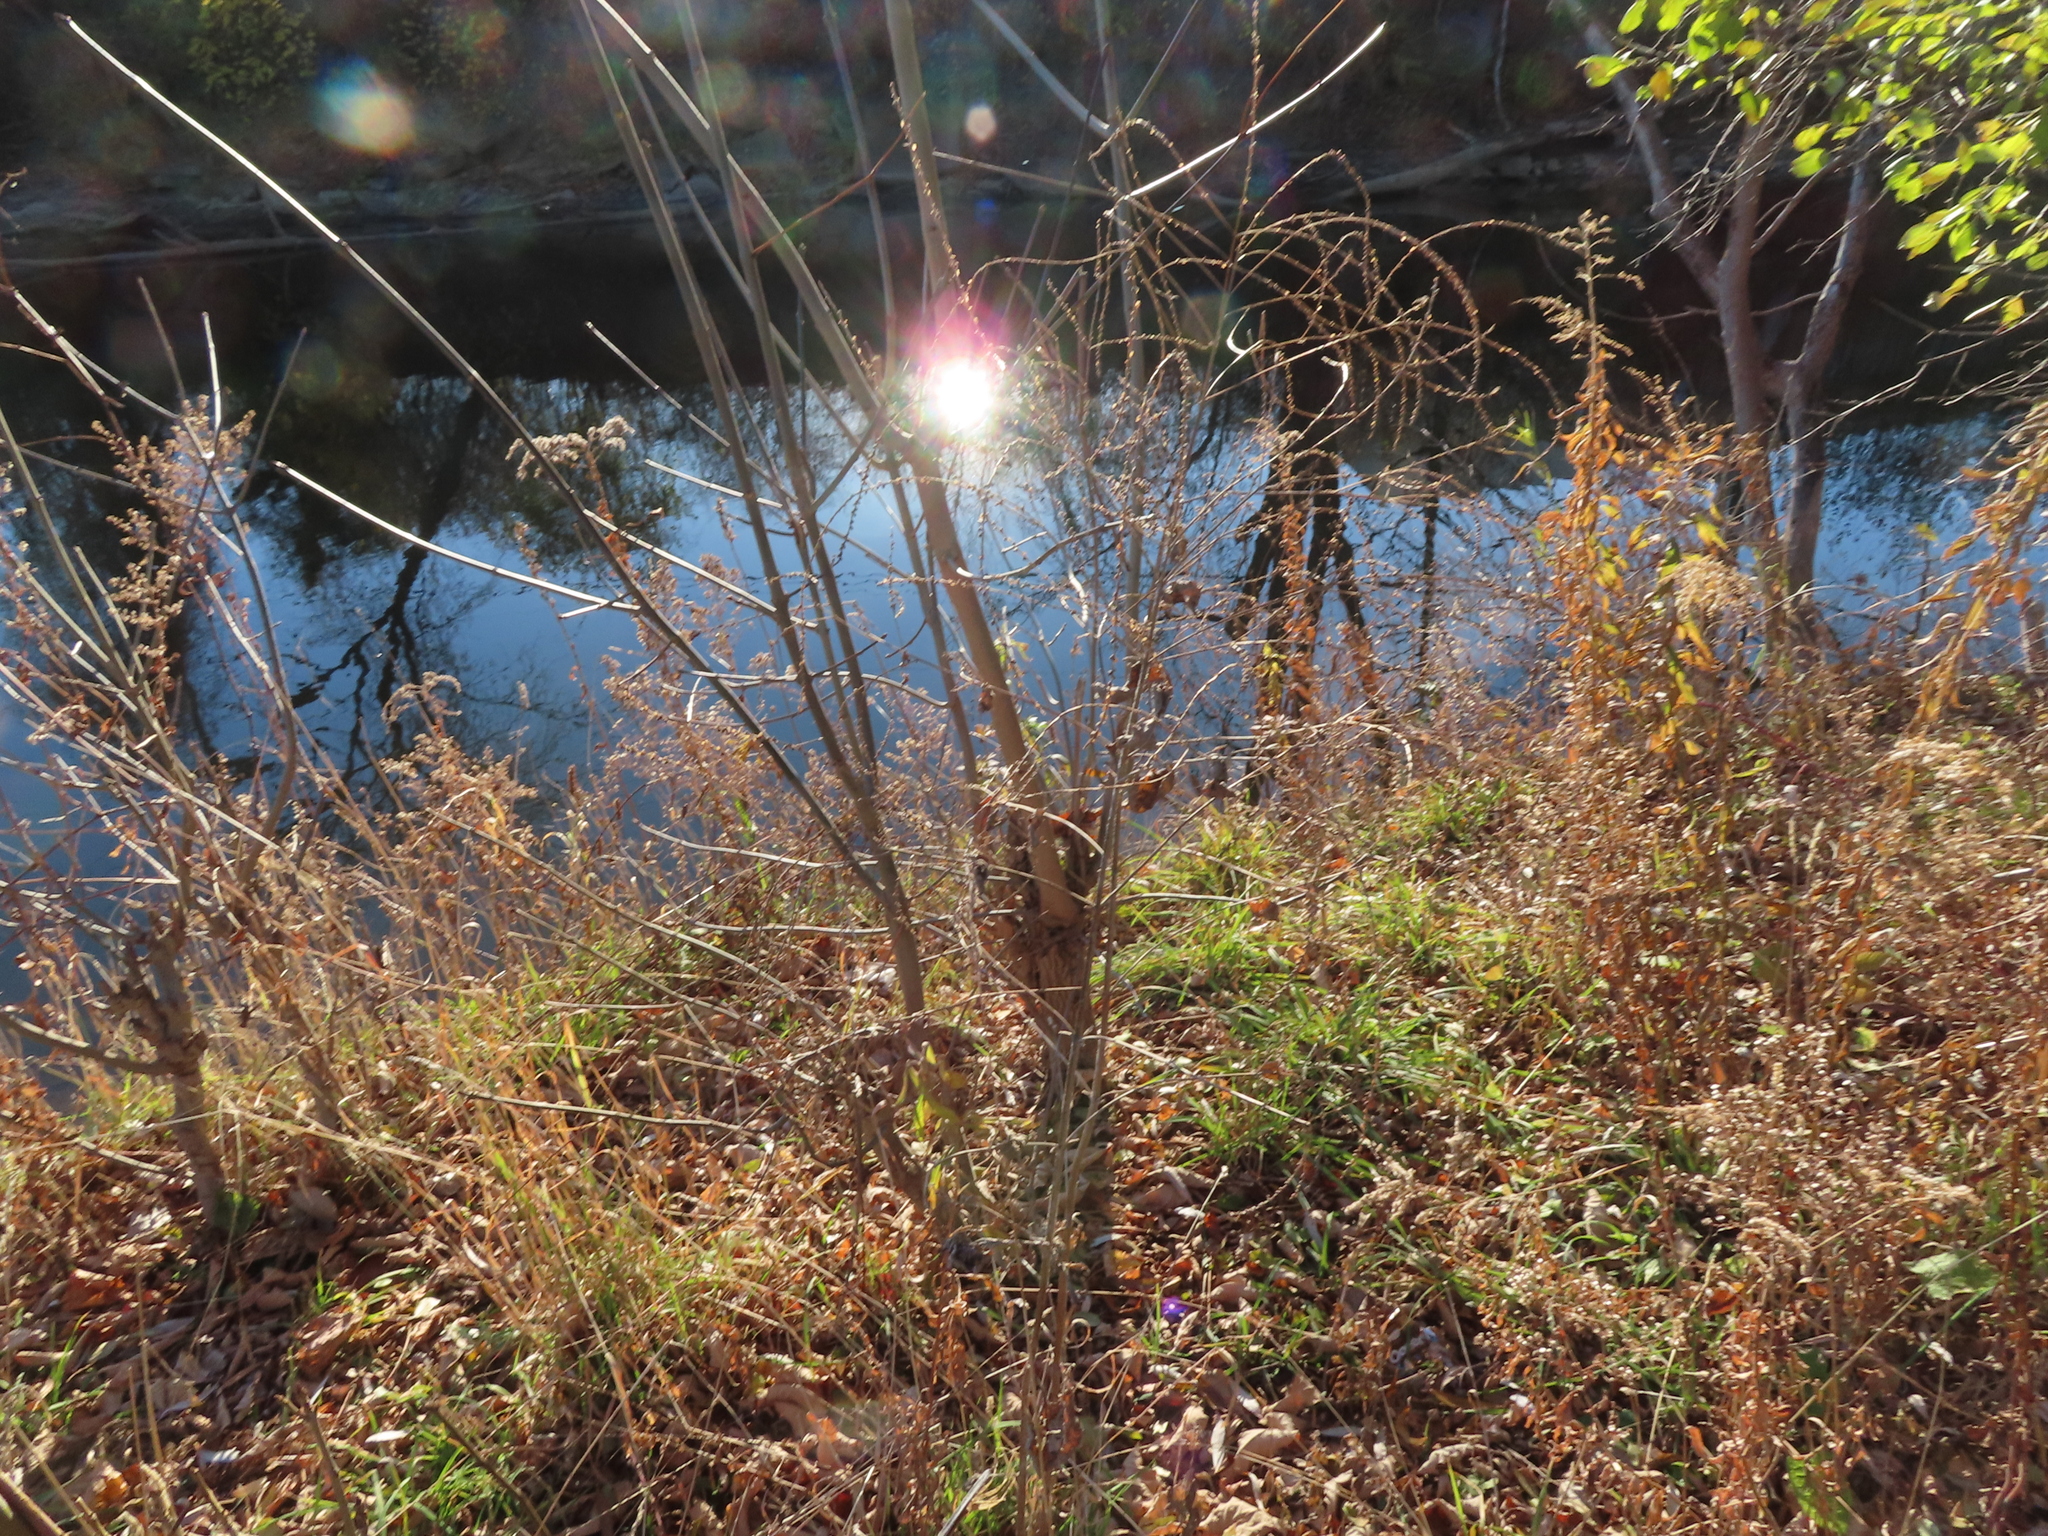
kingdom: Plantae
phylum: Tracheophyta
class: Magnoliopsida
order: Rosales
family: Rhamnaceae
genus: Rhamnus
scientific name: Rhamnus cathartica
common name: Common buckthorn
